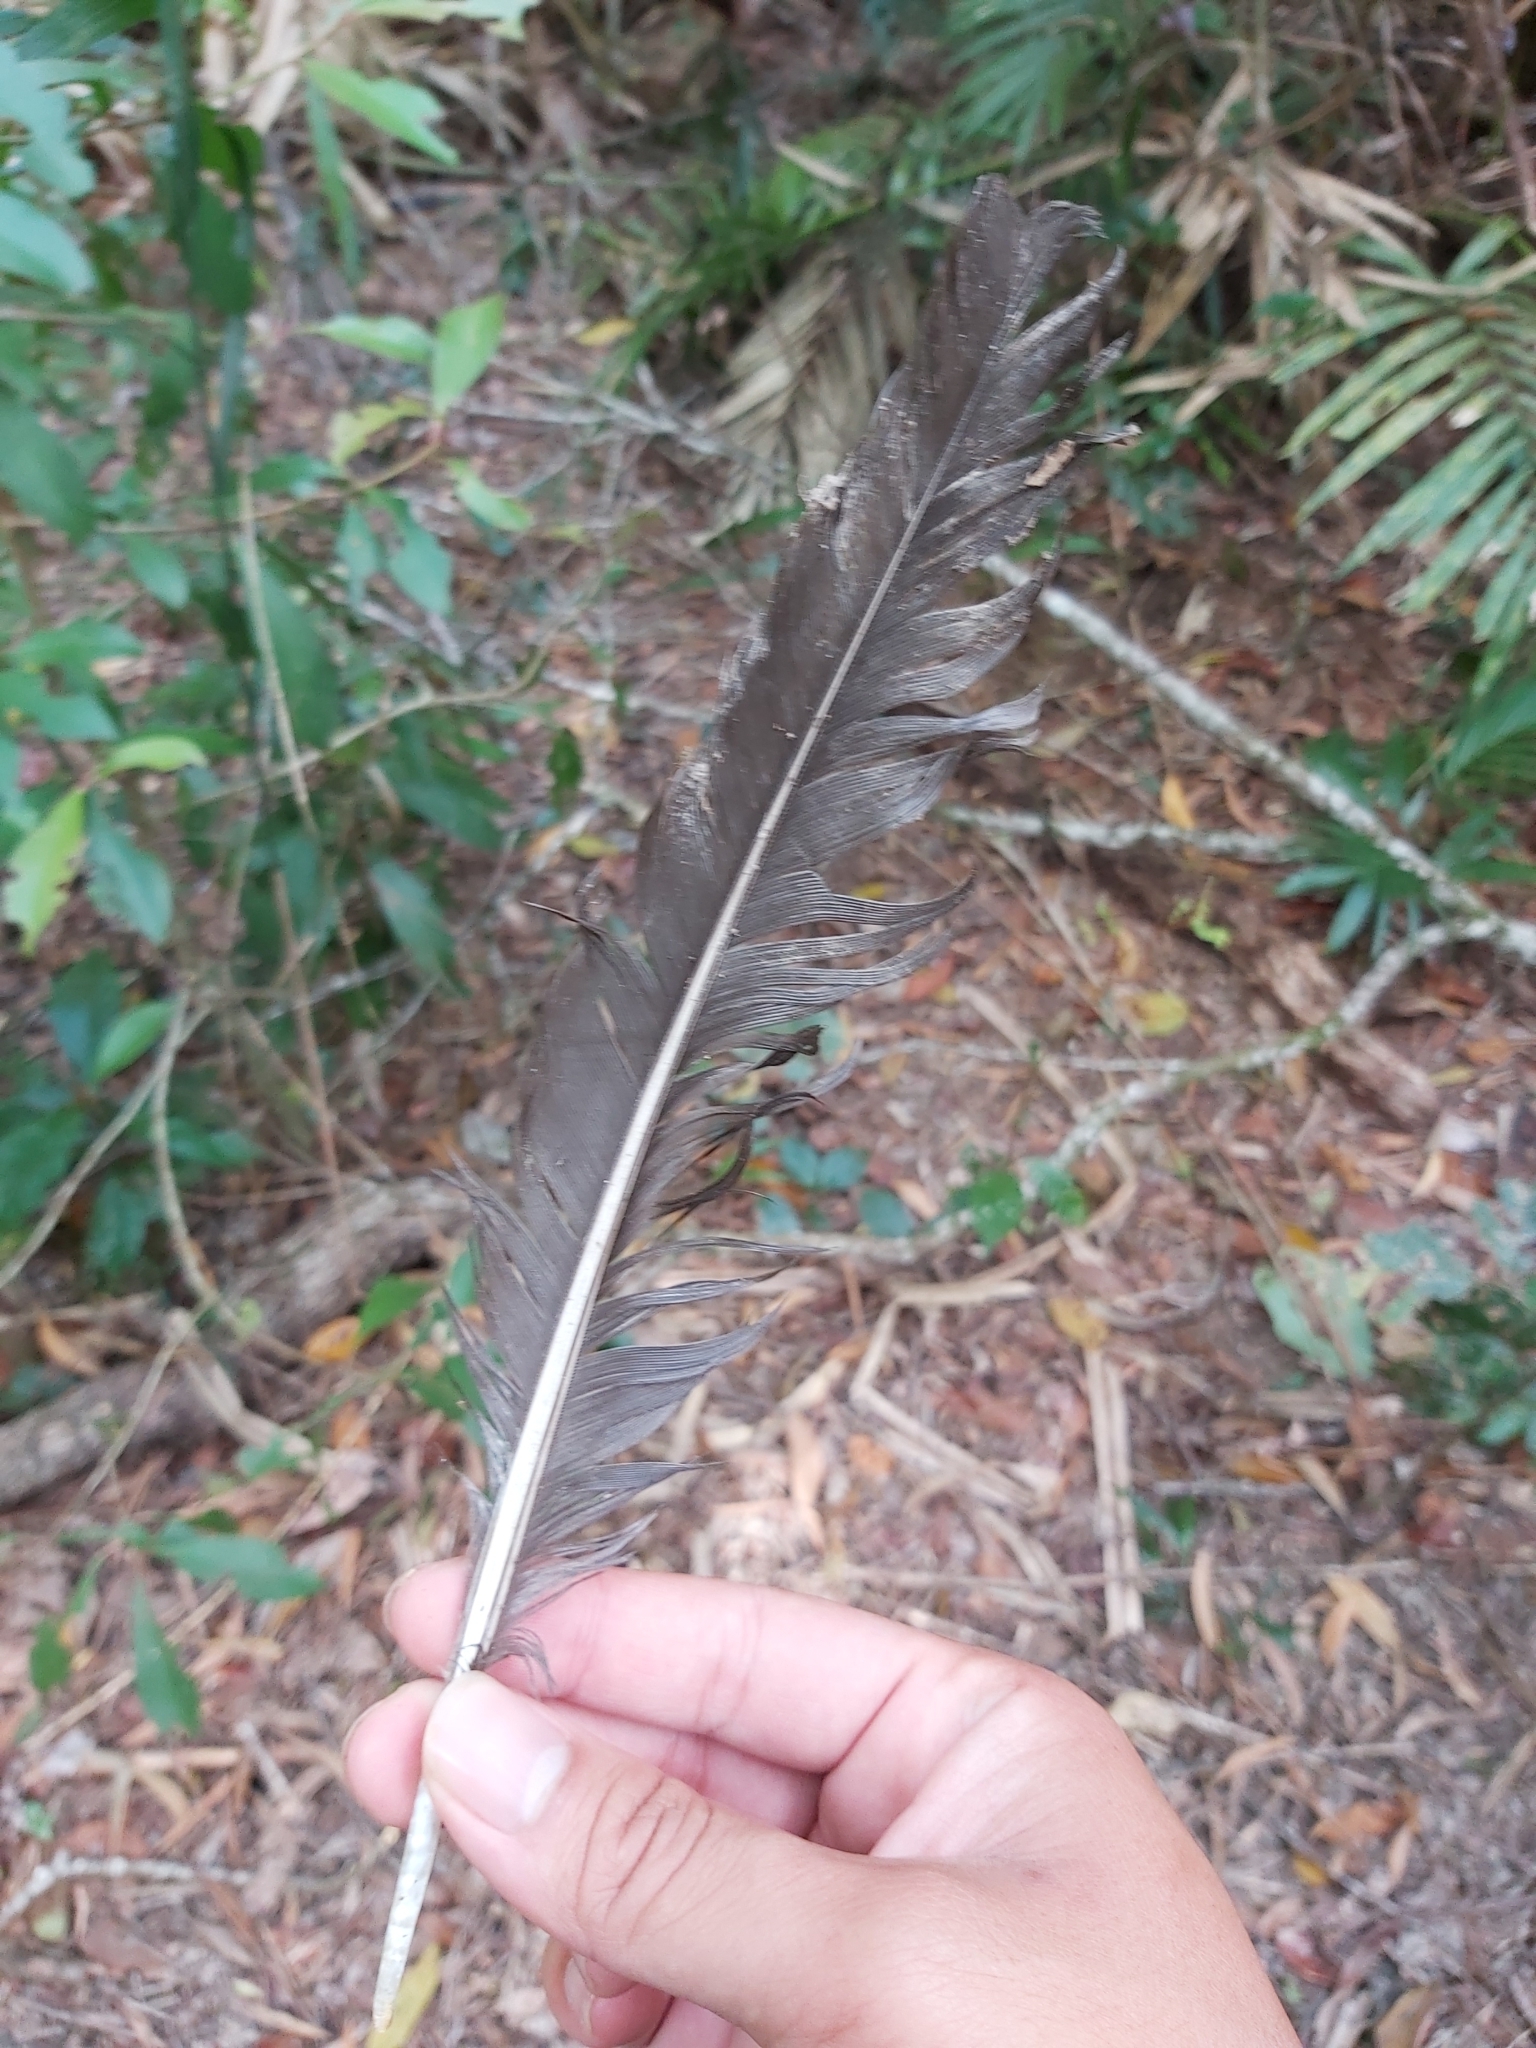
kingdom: Animalia
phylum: Chordata
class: Aves
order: Galliformes
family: Megapodiidae
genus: Alectura
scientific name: Alectura lathami
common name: Australian brushturkey
